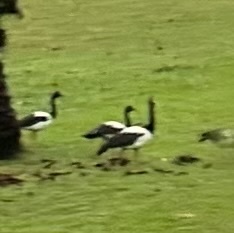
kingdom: Animalia
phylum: Chordata
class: Aves
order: Anseriformes
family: Anseranatidae
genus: Anseranas
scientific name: Anseranas semipalmata
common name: Magpie goose
